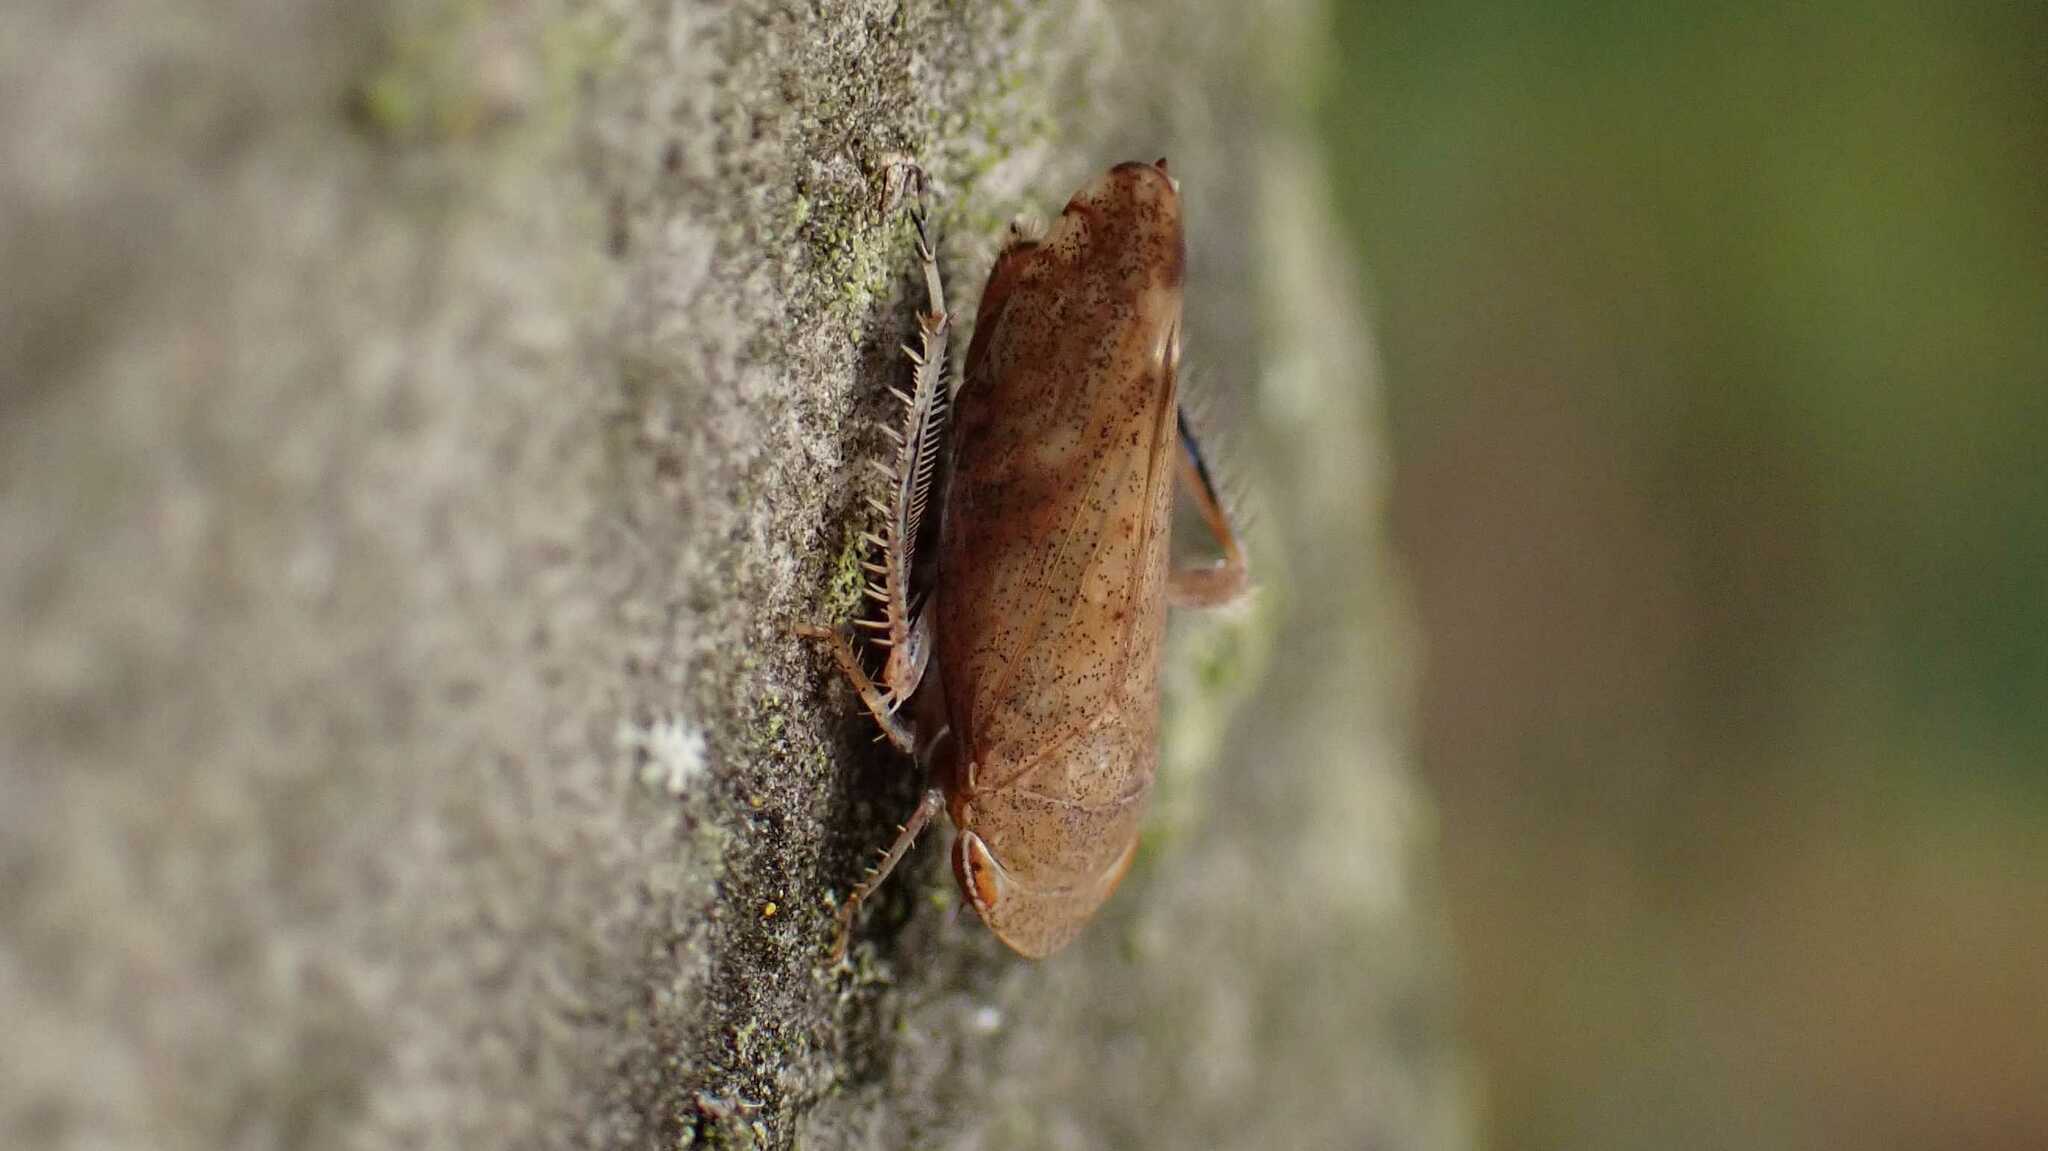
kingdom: Animalia
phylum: Arthropoda
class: Insecta
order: Hemiptera
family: Cicadellidae
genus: Fieberiella
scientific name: Fieberiella
